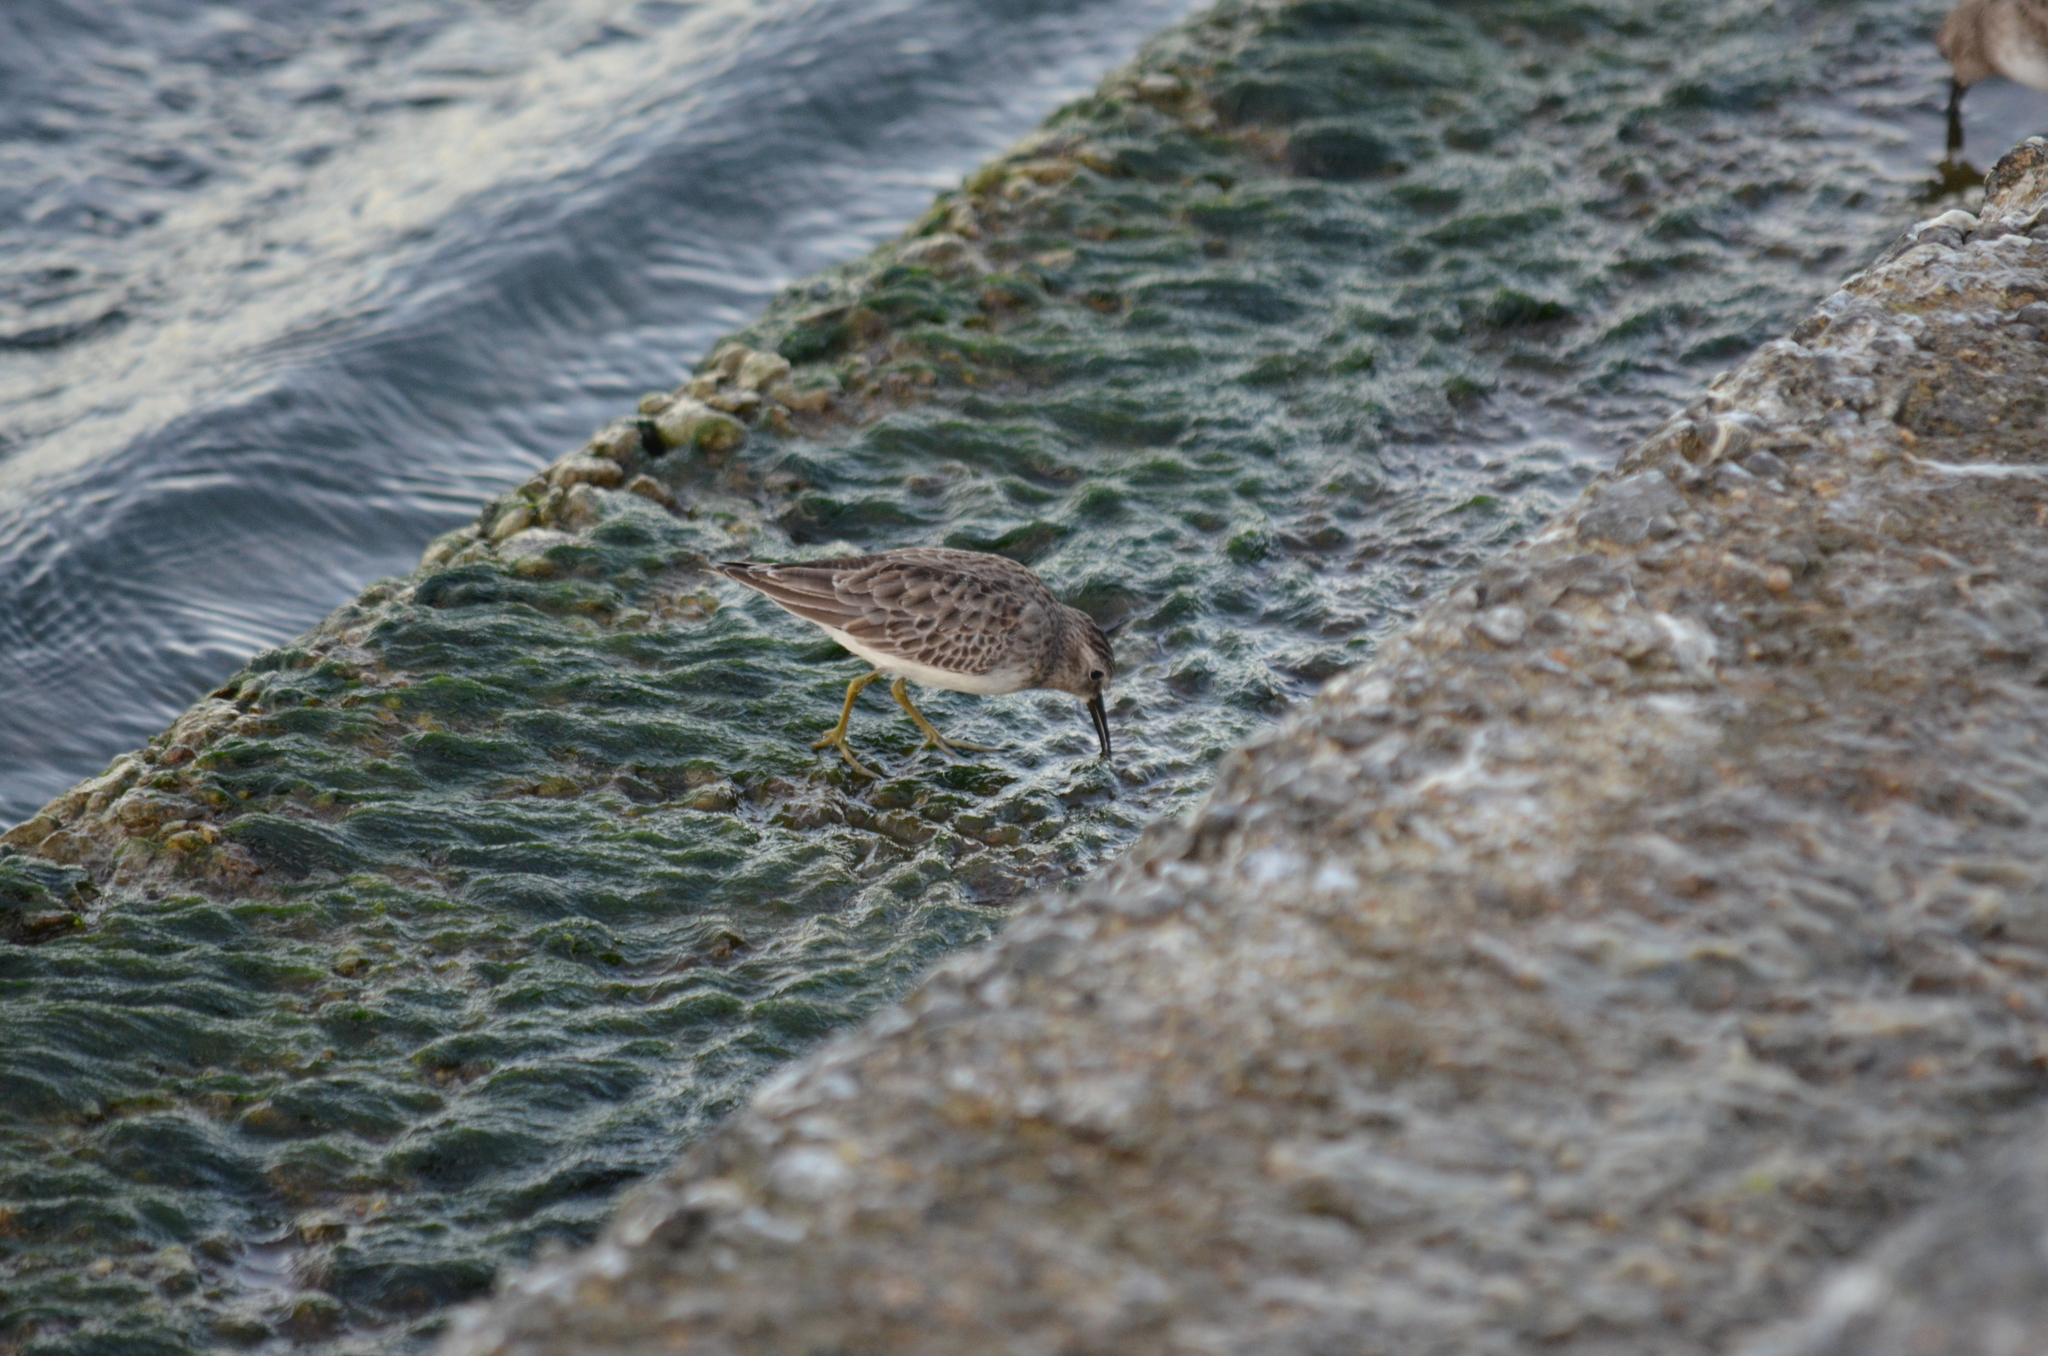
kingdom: Animalia
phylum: Chordata
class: Aves
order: Charadriiformes
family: Scolopacidae
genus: Calidris
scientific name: Calidris minutilla
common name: Least sandpiper
